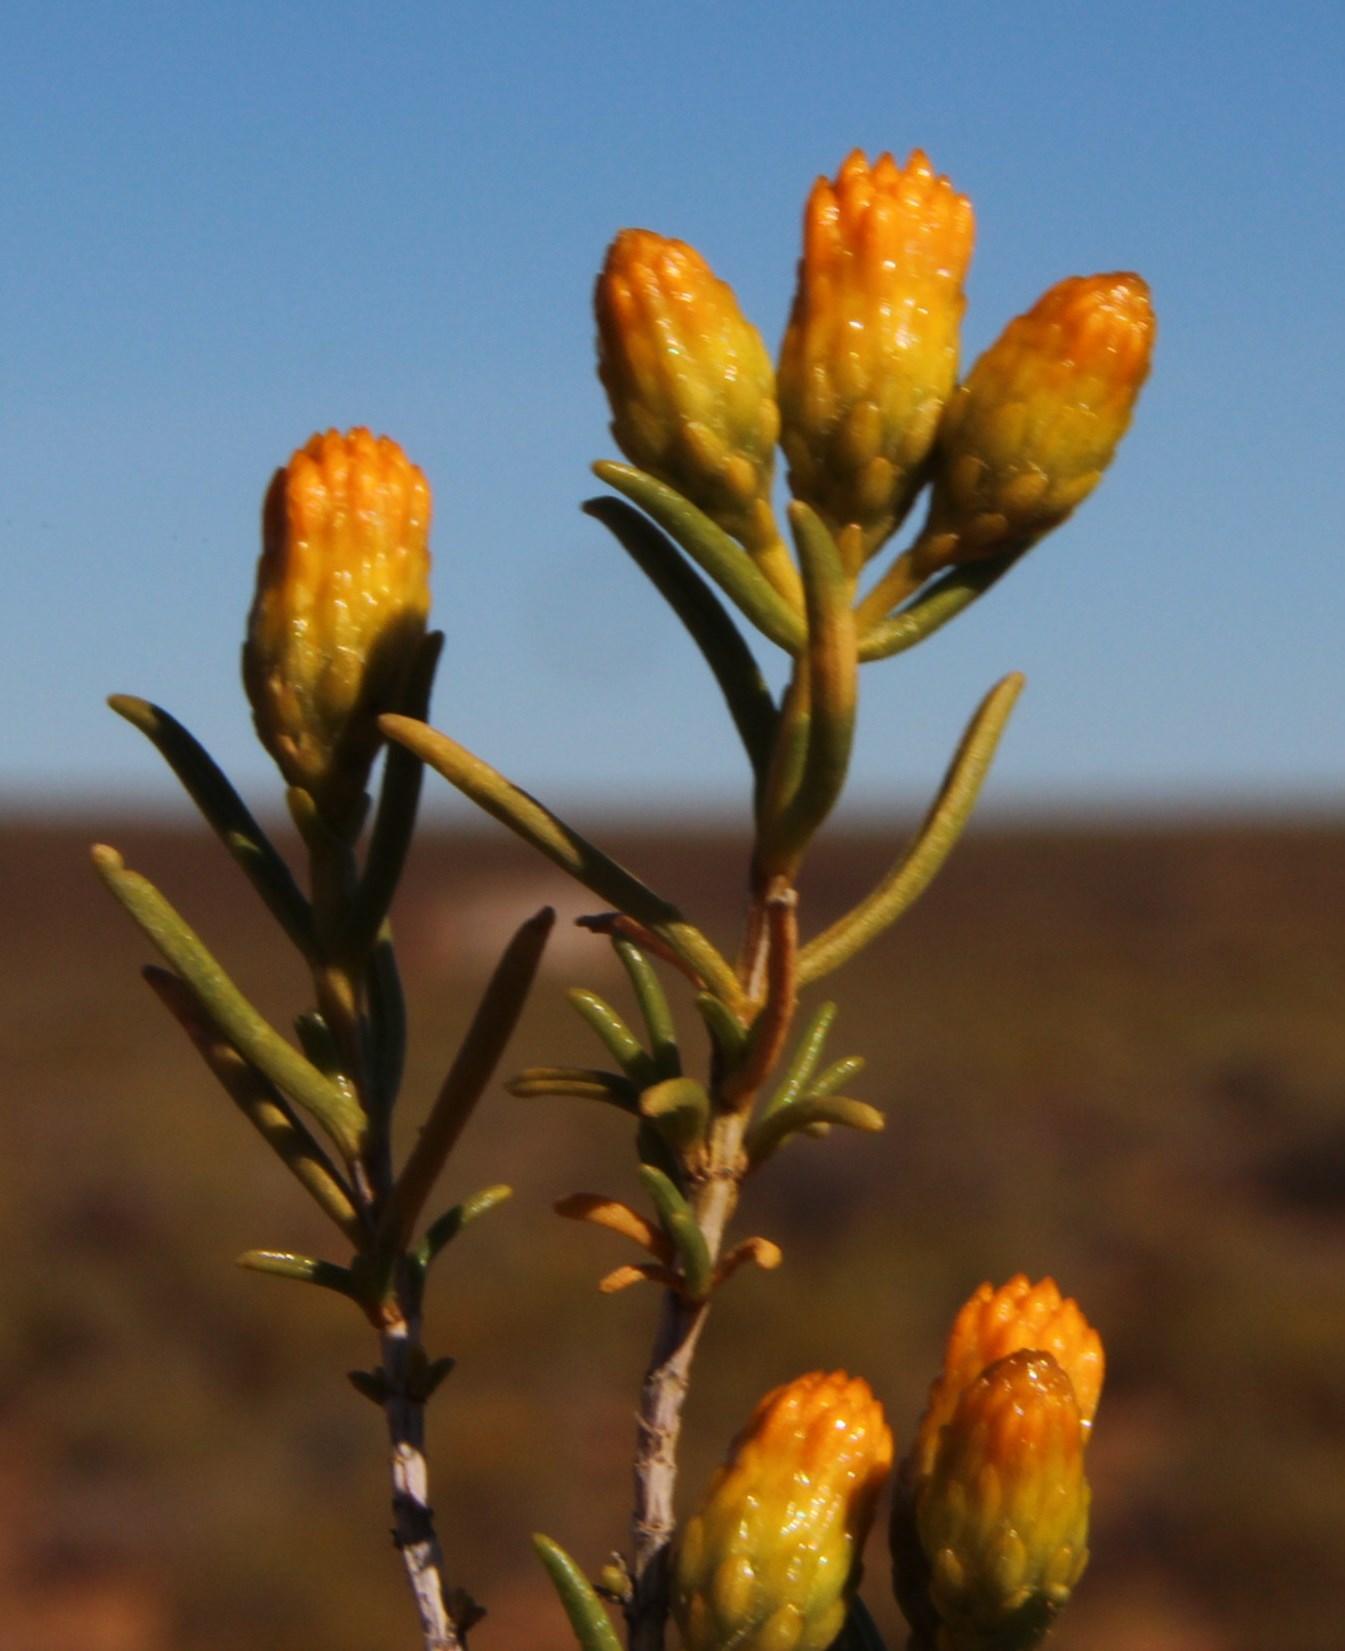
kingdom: Plantae
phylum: Tracheophyta
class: Magnoliopsida
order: Asterales
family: Asteraceae
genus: Pteronia
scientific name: Pteronia pallens
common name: Scholtzbush
